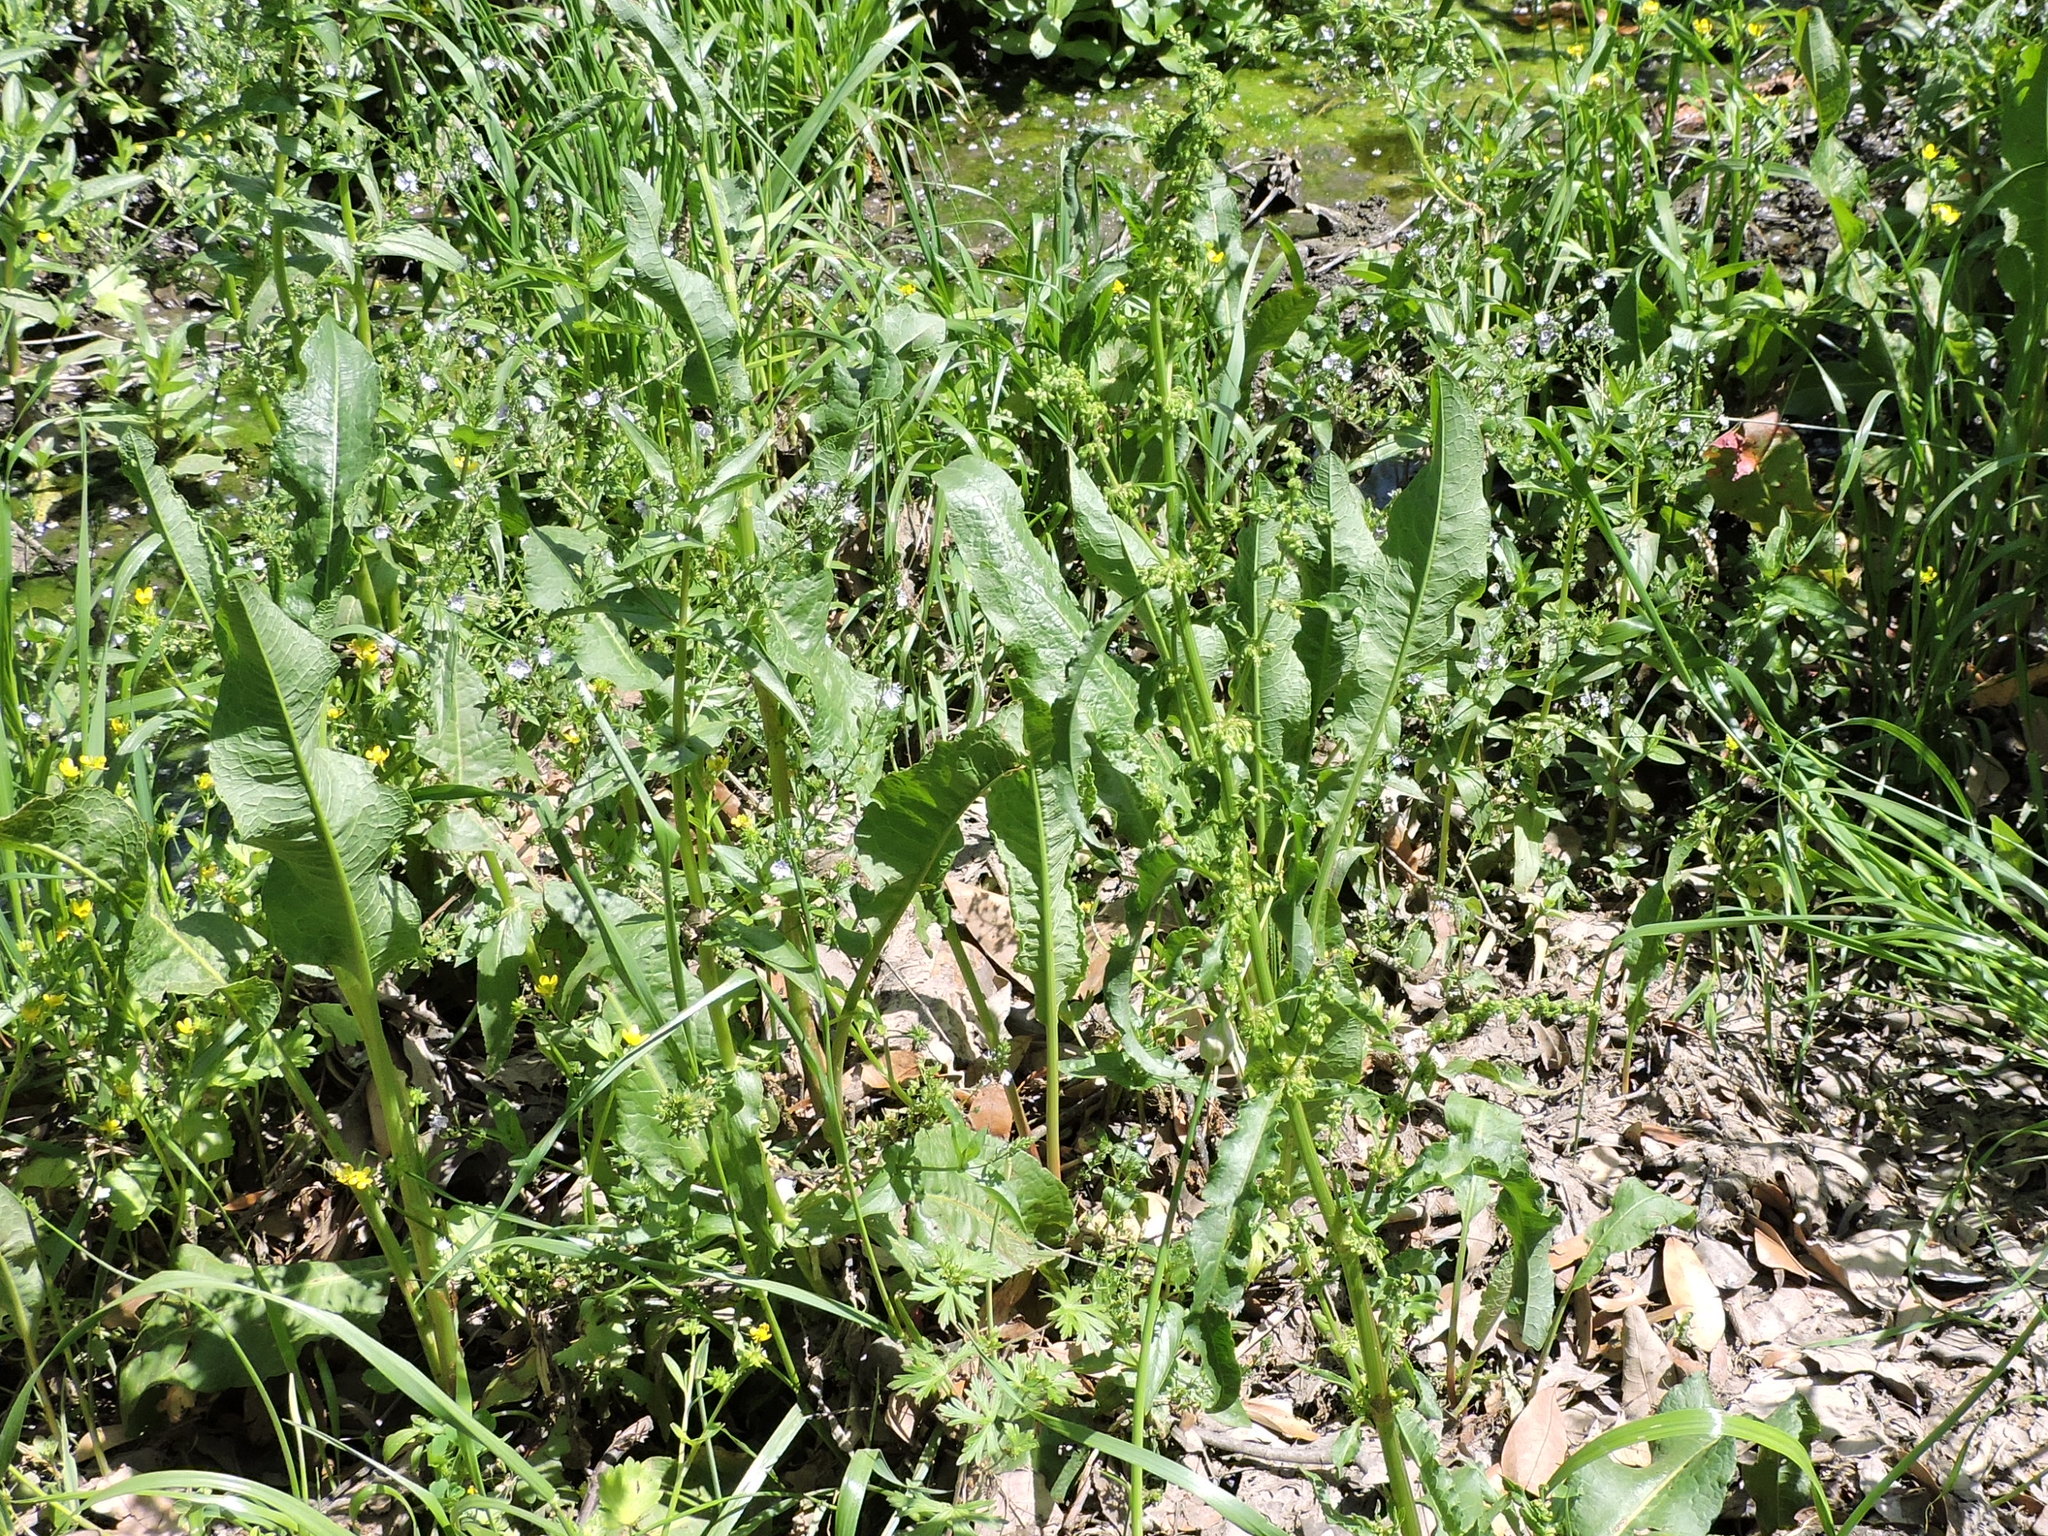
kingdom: Plantae
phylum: Tracheophyta
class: Magnoliopsida
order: Caryophyllales
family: Polygonaceae
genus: Rumex
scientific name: Rumex crispus
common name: Curled dock
